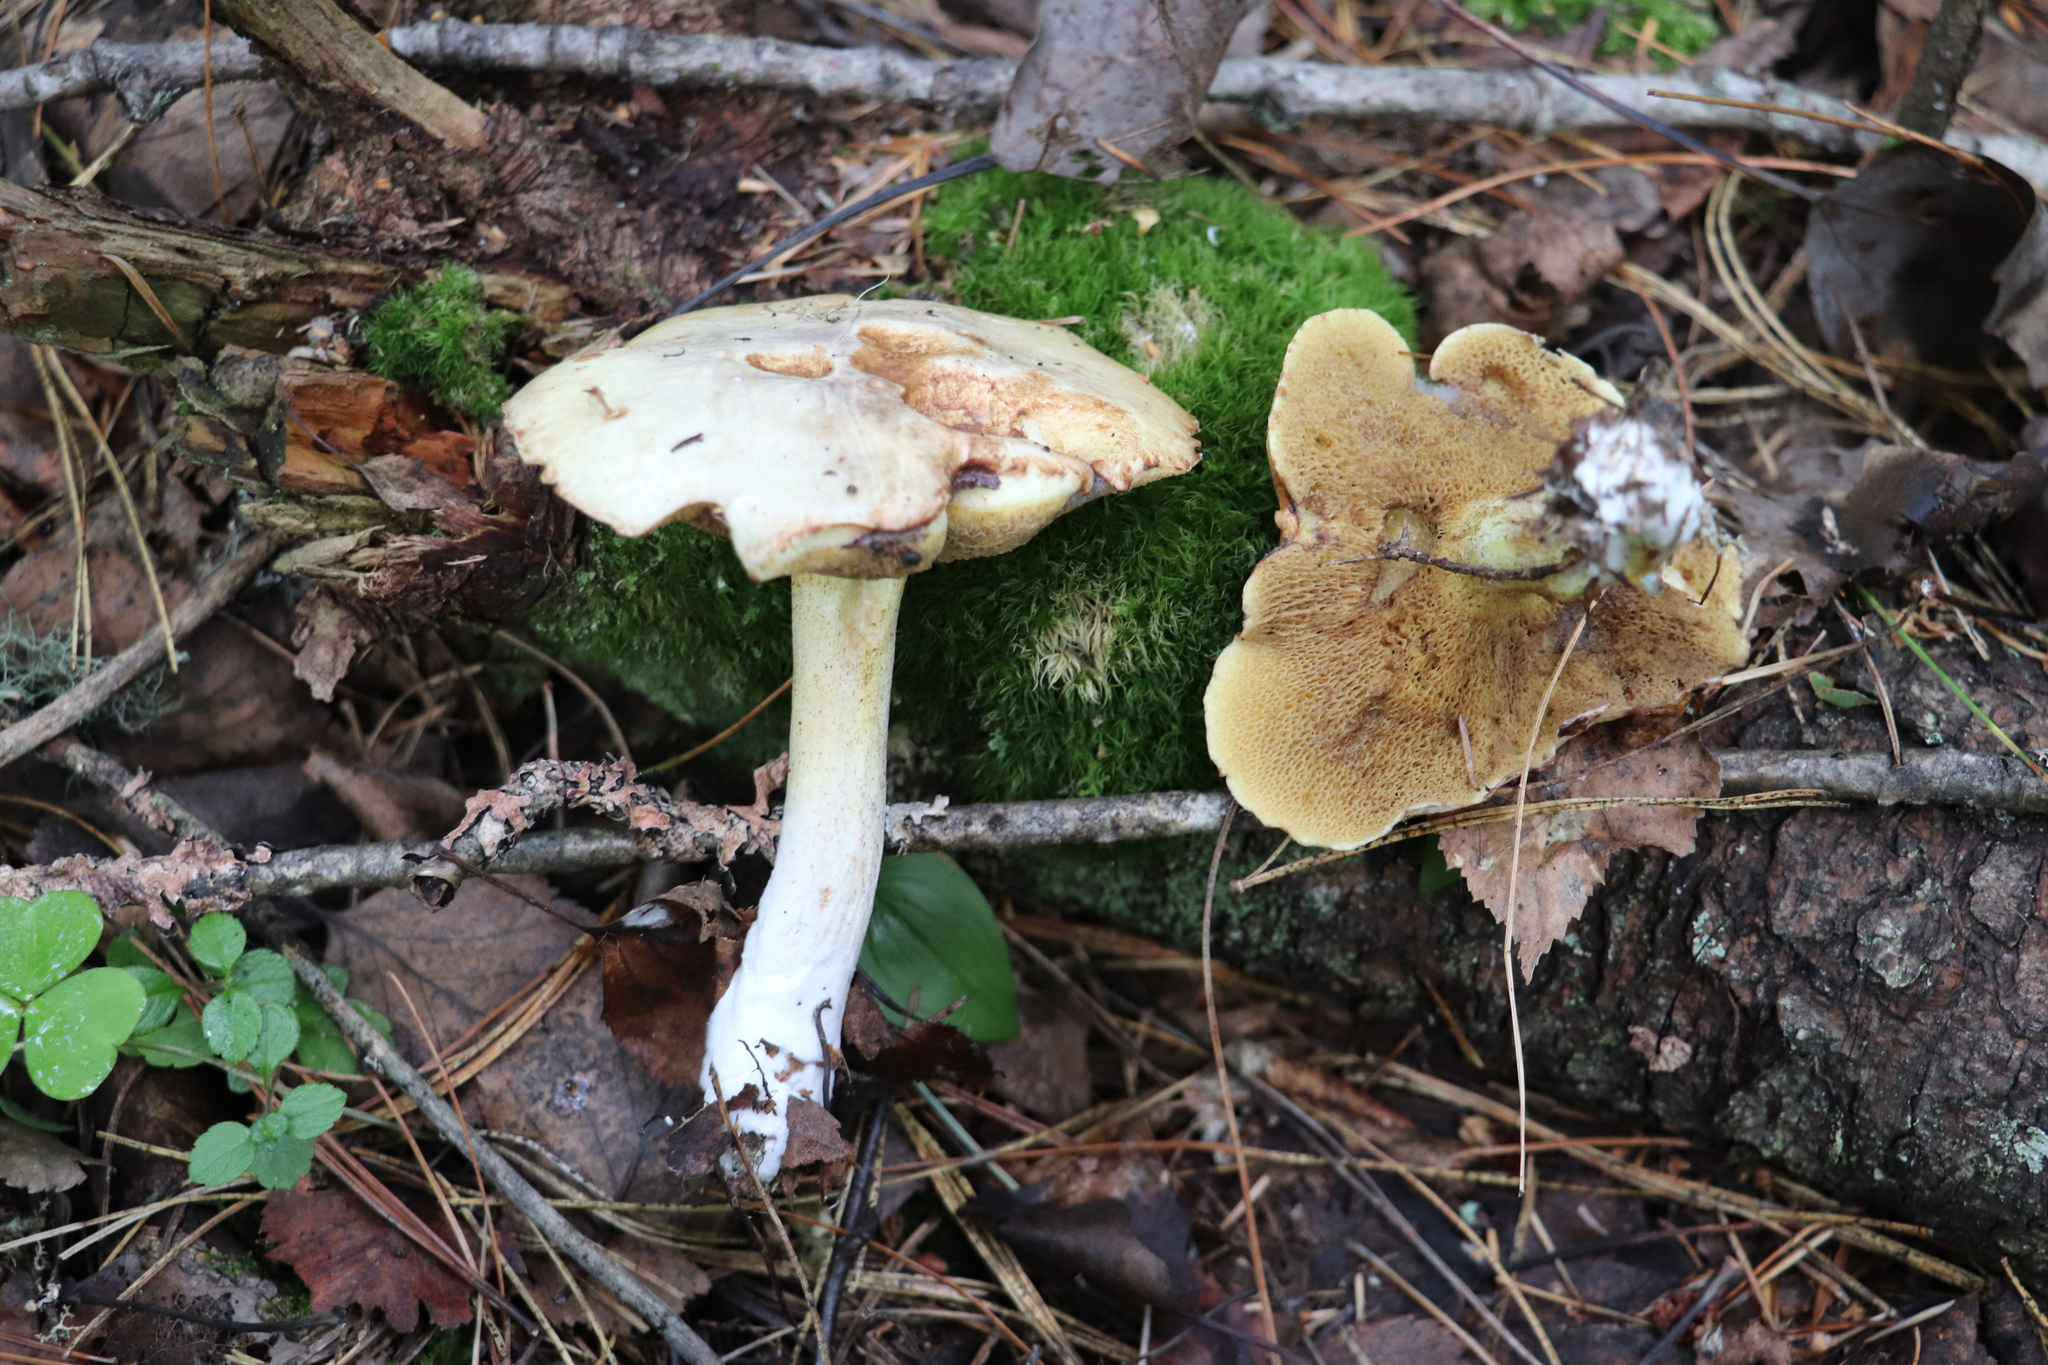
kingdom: Fungi
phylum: Basidiomycota
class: Agaricomycetes
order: Boletales
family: Suillaceae
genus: Suillus
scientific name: Suillus placidus
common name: Slippery white bolete
